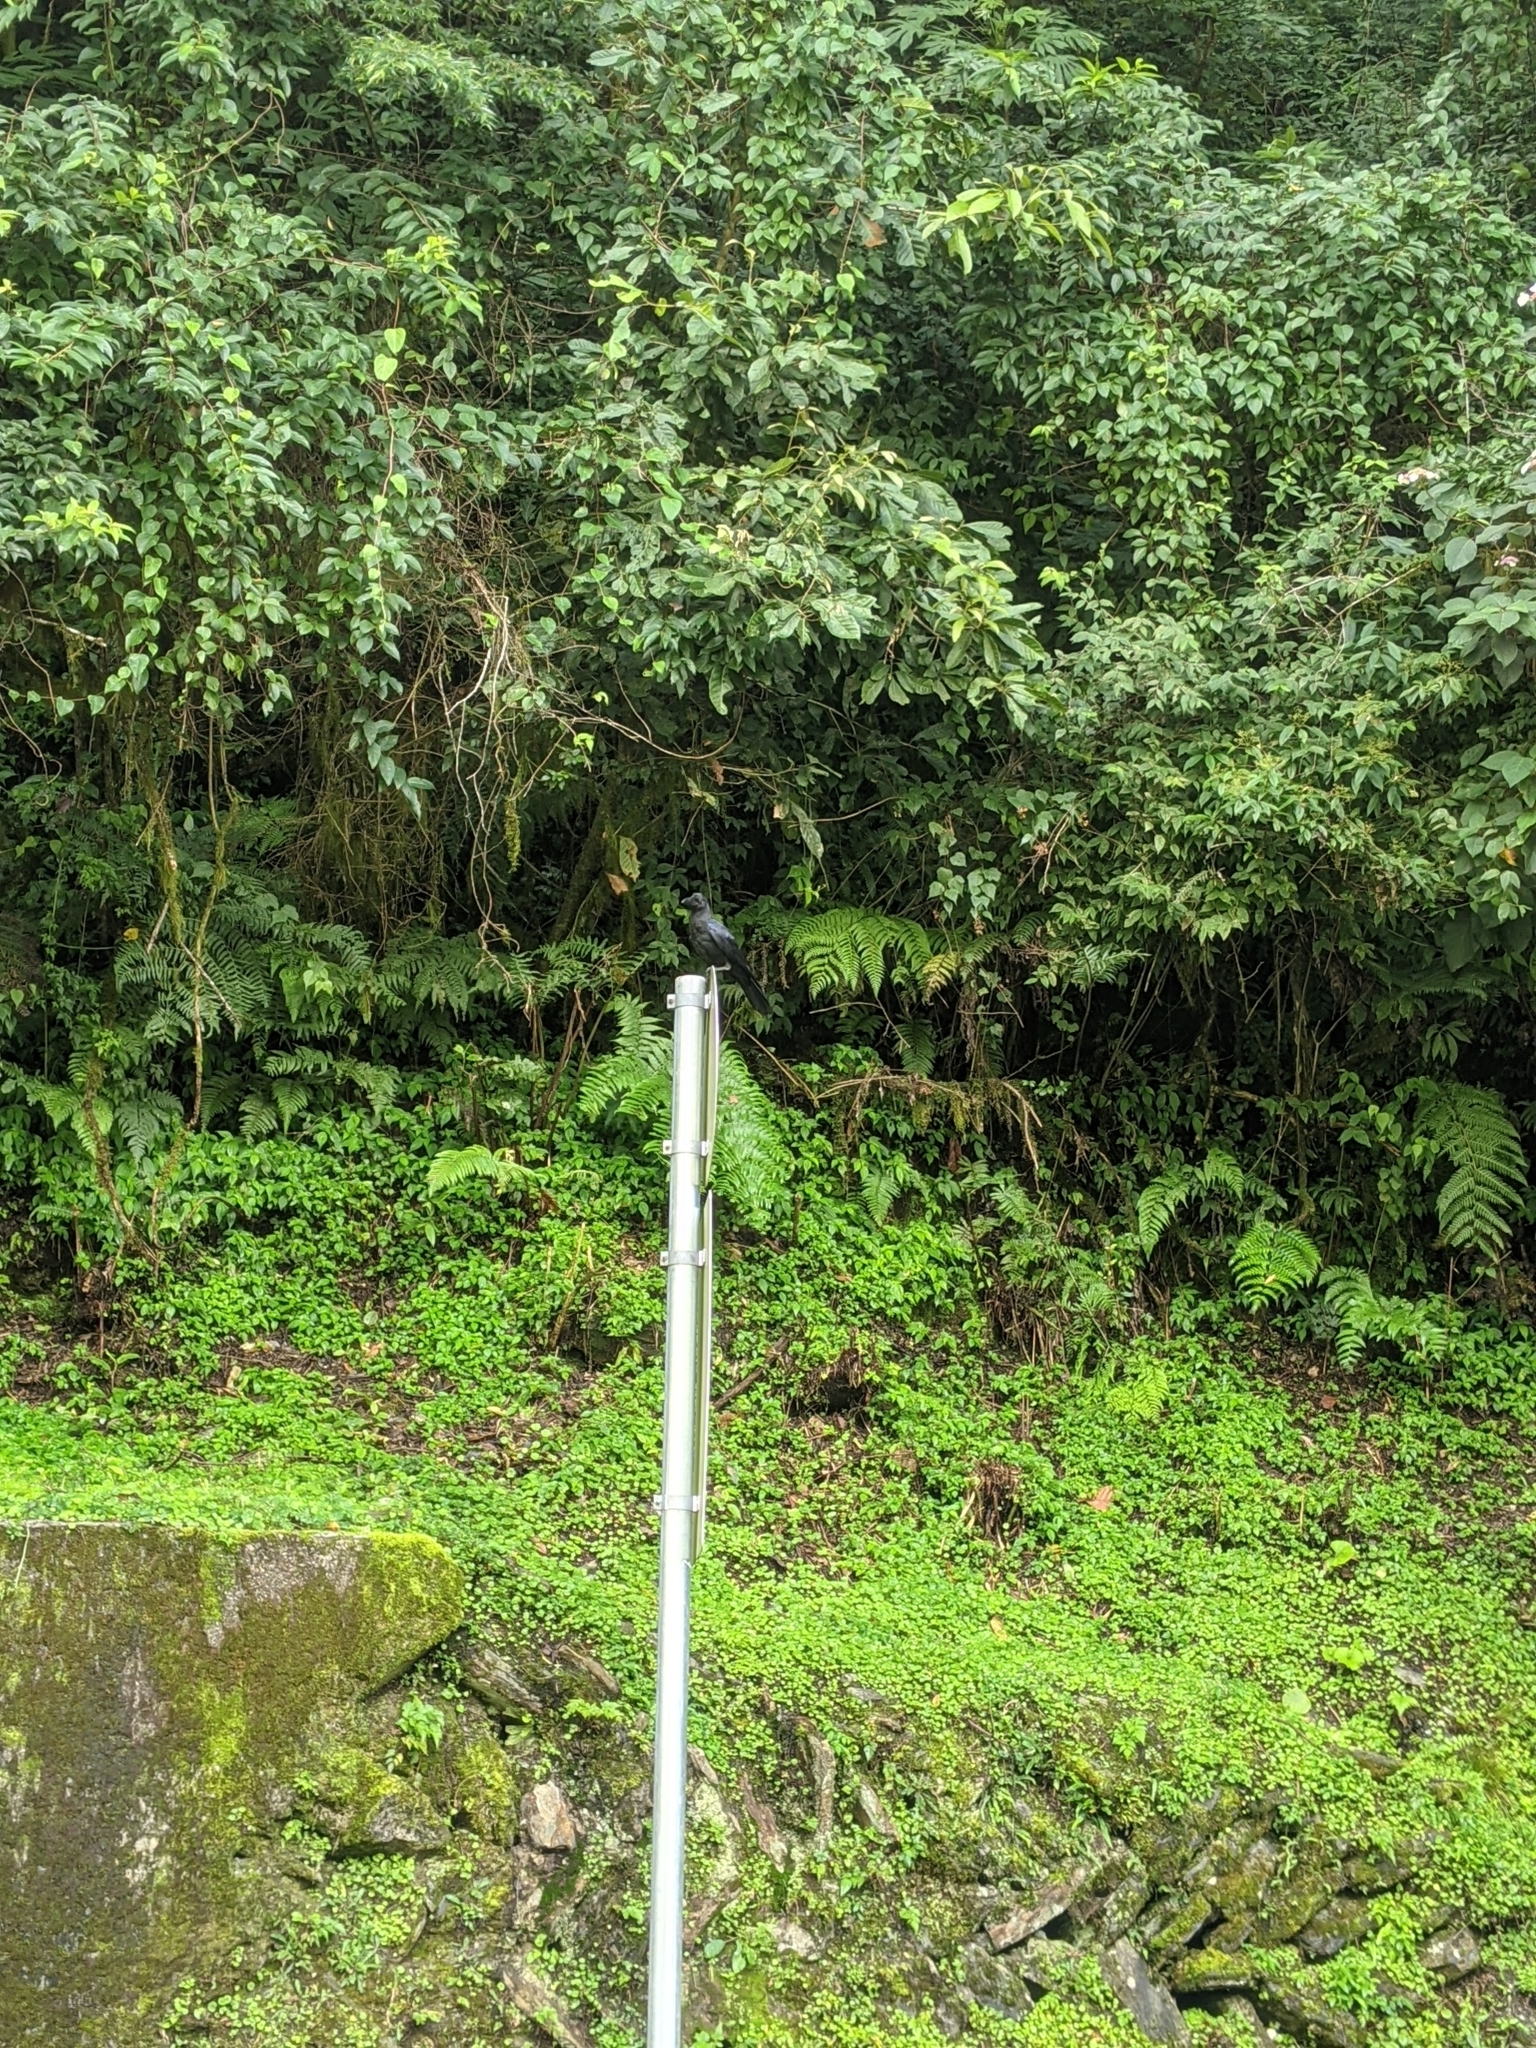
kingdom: Animalia
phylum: Chordata
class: Aves
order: Passeriformes
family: Corvidae
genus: Corvus
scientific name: Corvus macrorhynchos
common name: Large-billed crow
